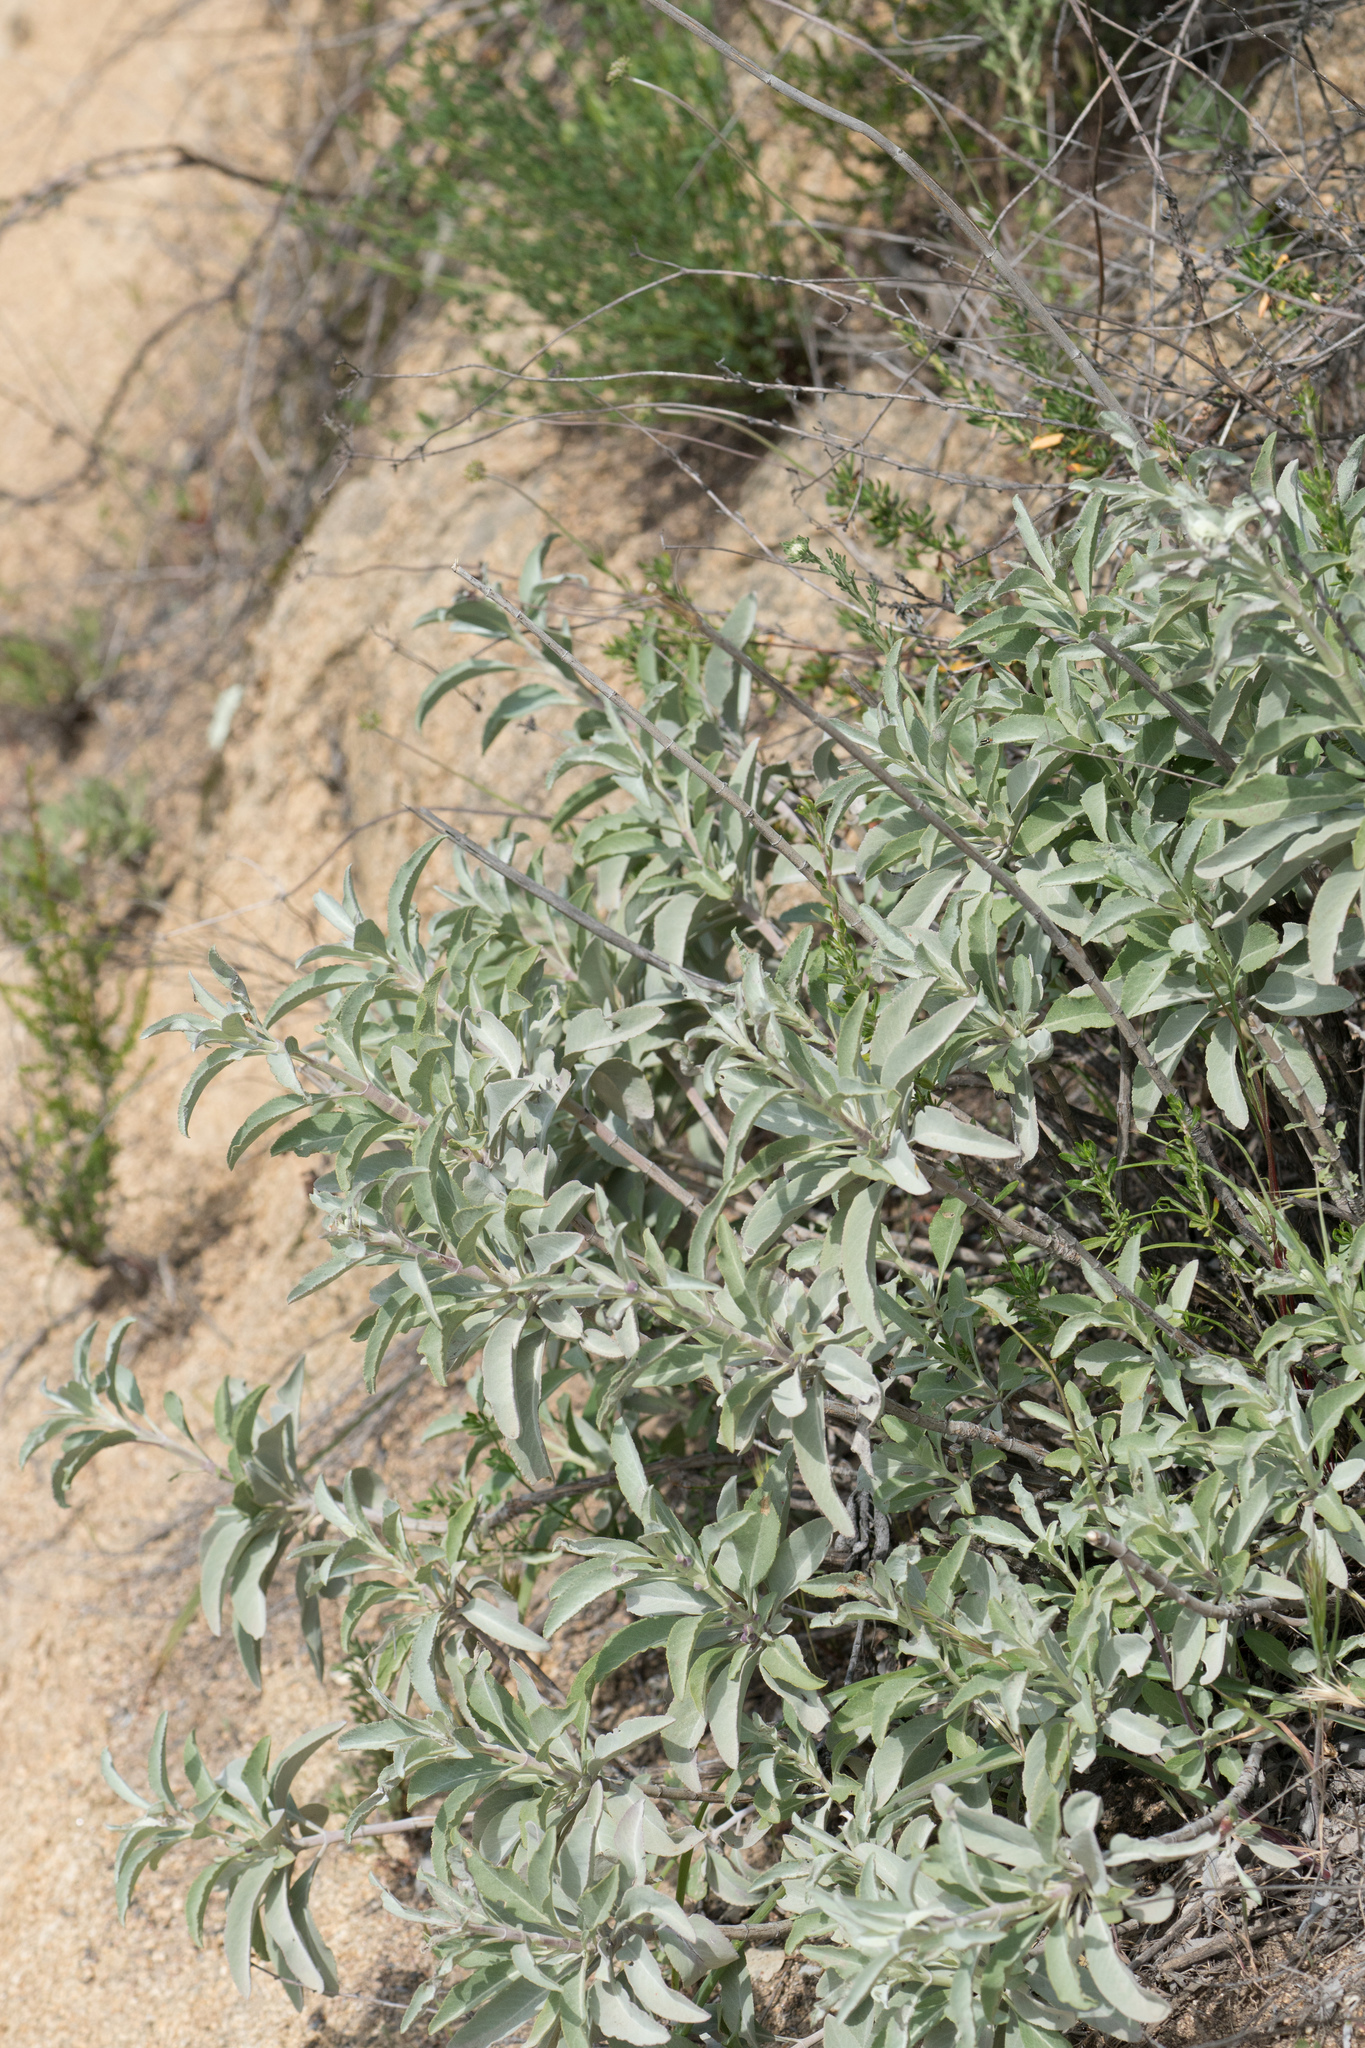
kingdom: Plantae
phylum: Tracheophyta
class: Magnoliopsida
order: Lamiales
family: Lamiaceae
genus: Salvia
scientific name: Salvia apiana
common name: White sage
